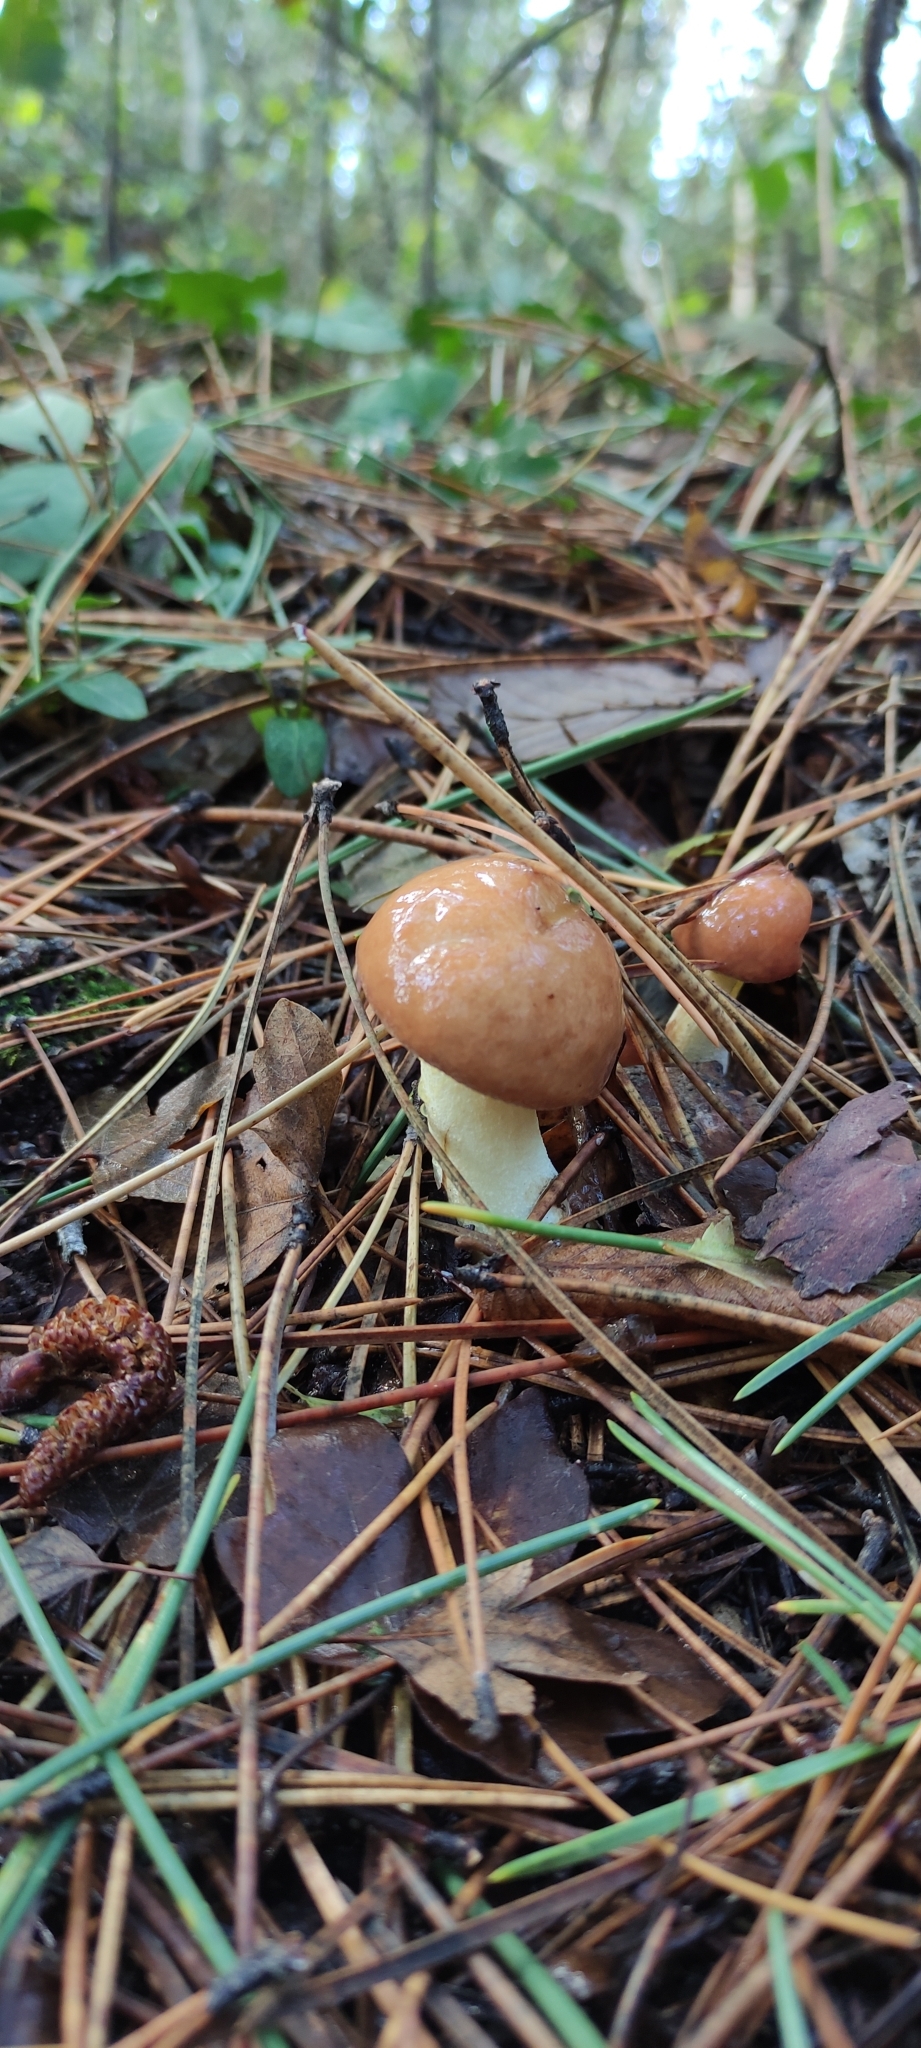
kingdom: Fungi
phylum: Basidiomycota
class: Agaricomycetes
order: Boletales
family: Suillaceae
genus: Suillus
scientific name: Suillus granulatus
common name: Weeping bolete
